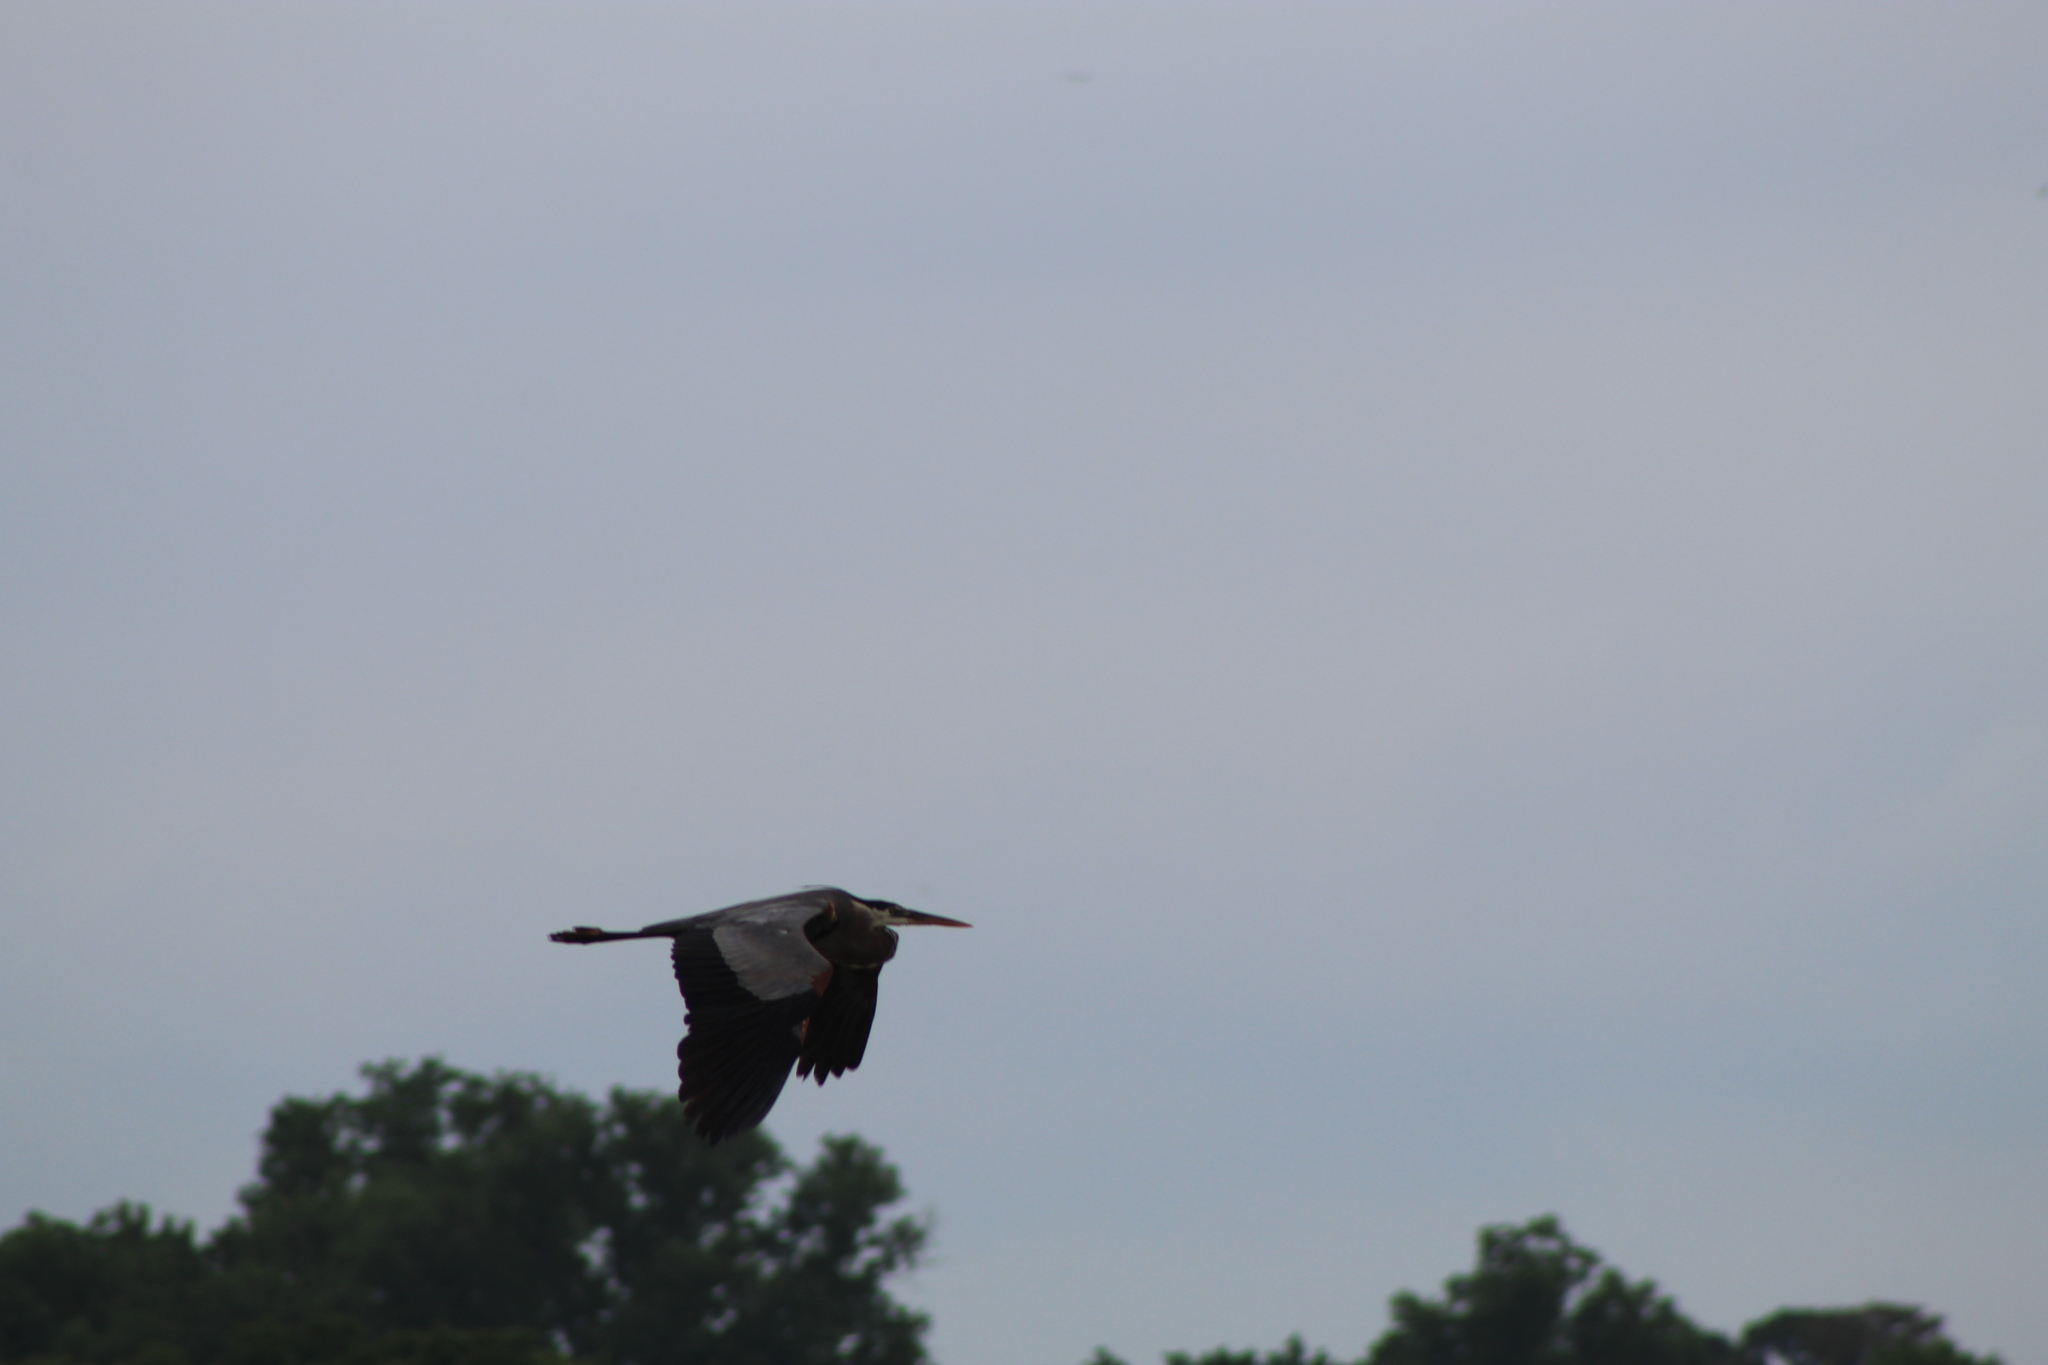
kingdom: Animalia
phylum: Chordata
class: Aves
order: Pelecaniformes
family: Ardeidae
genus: Ardea
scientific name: Ardea herodias
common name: Great blue heron
